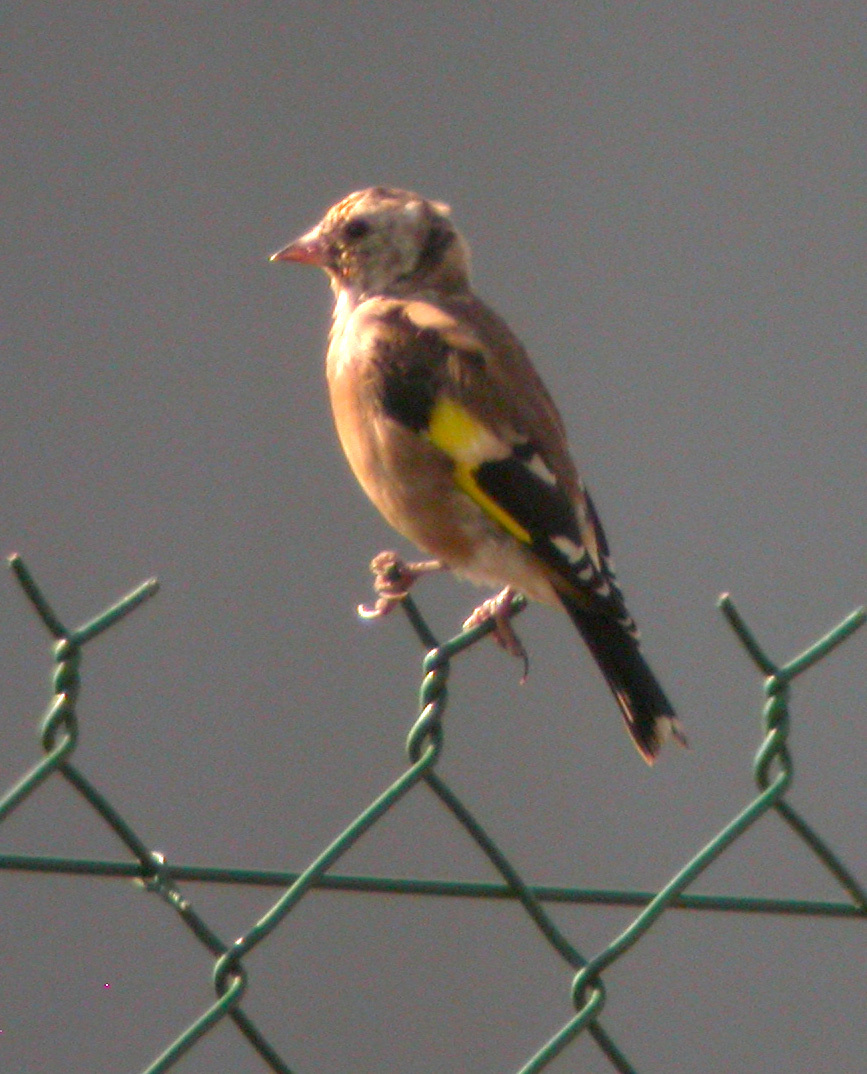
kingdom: Animalia
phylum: Chordata
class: Aves
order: Passeriformes
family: Fringillidae
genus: Carduelis
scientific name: Carduelis carduelis
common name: European goldfinch
